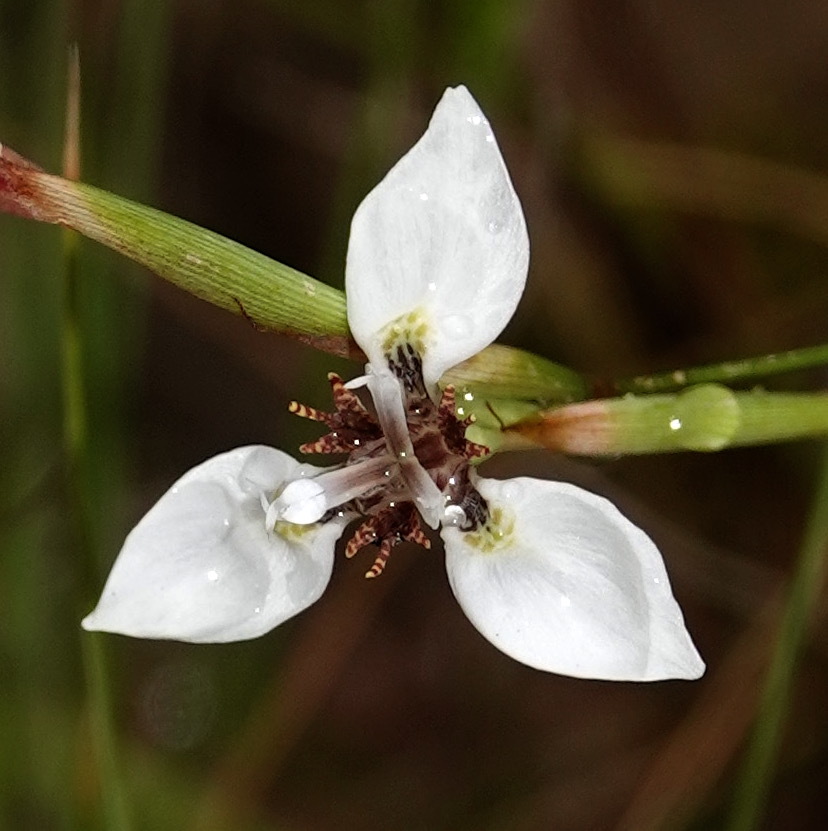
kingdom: Plantae
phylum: Tracheophyta
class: Liliopsida
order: Asparagales
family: Iridaceae
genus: Moraea
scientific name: Moraea tricuspidata
